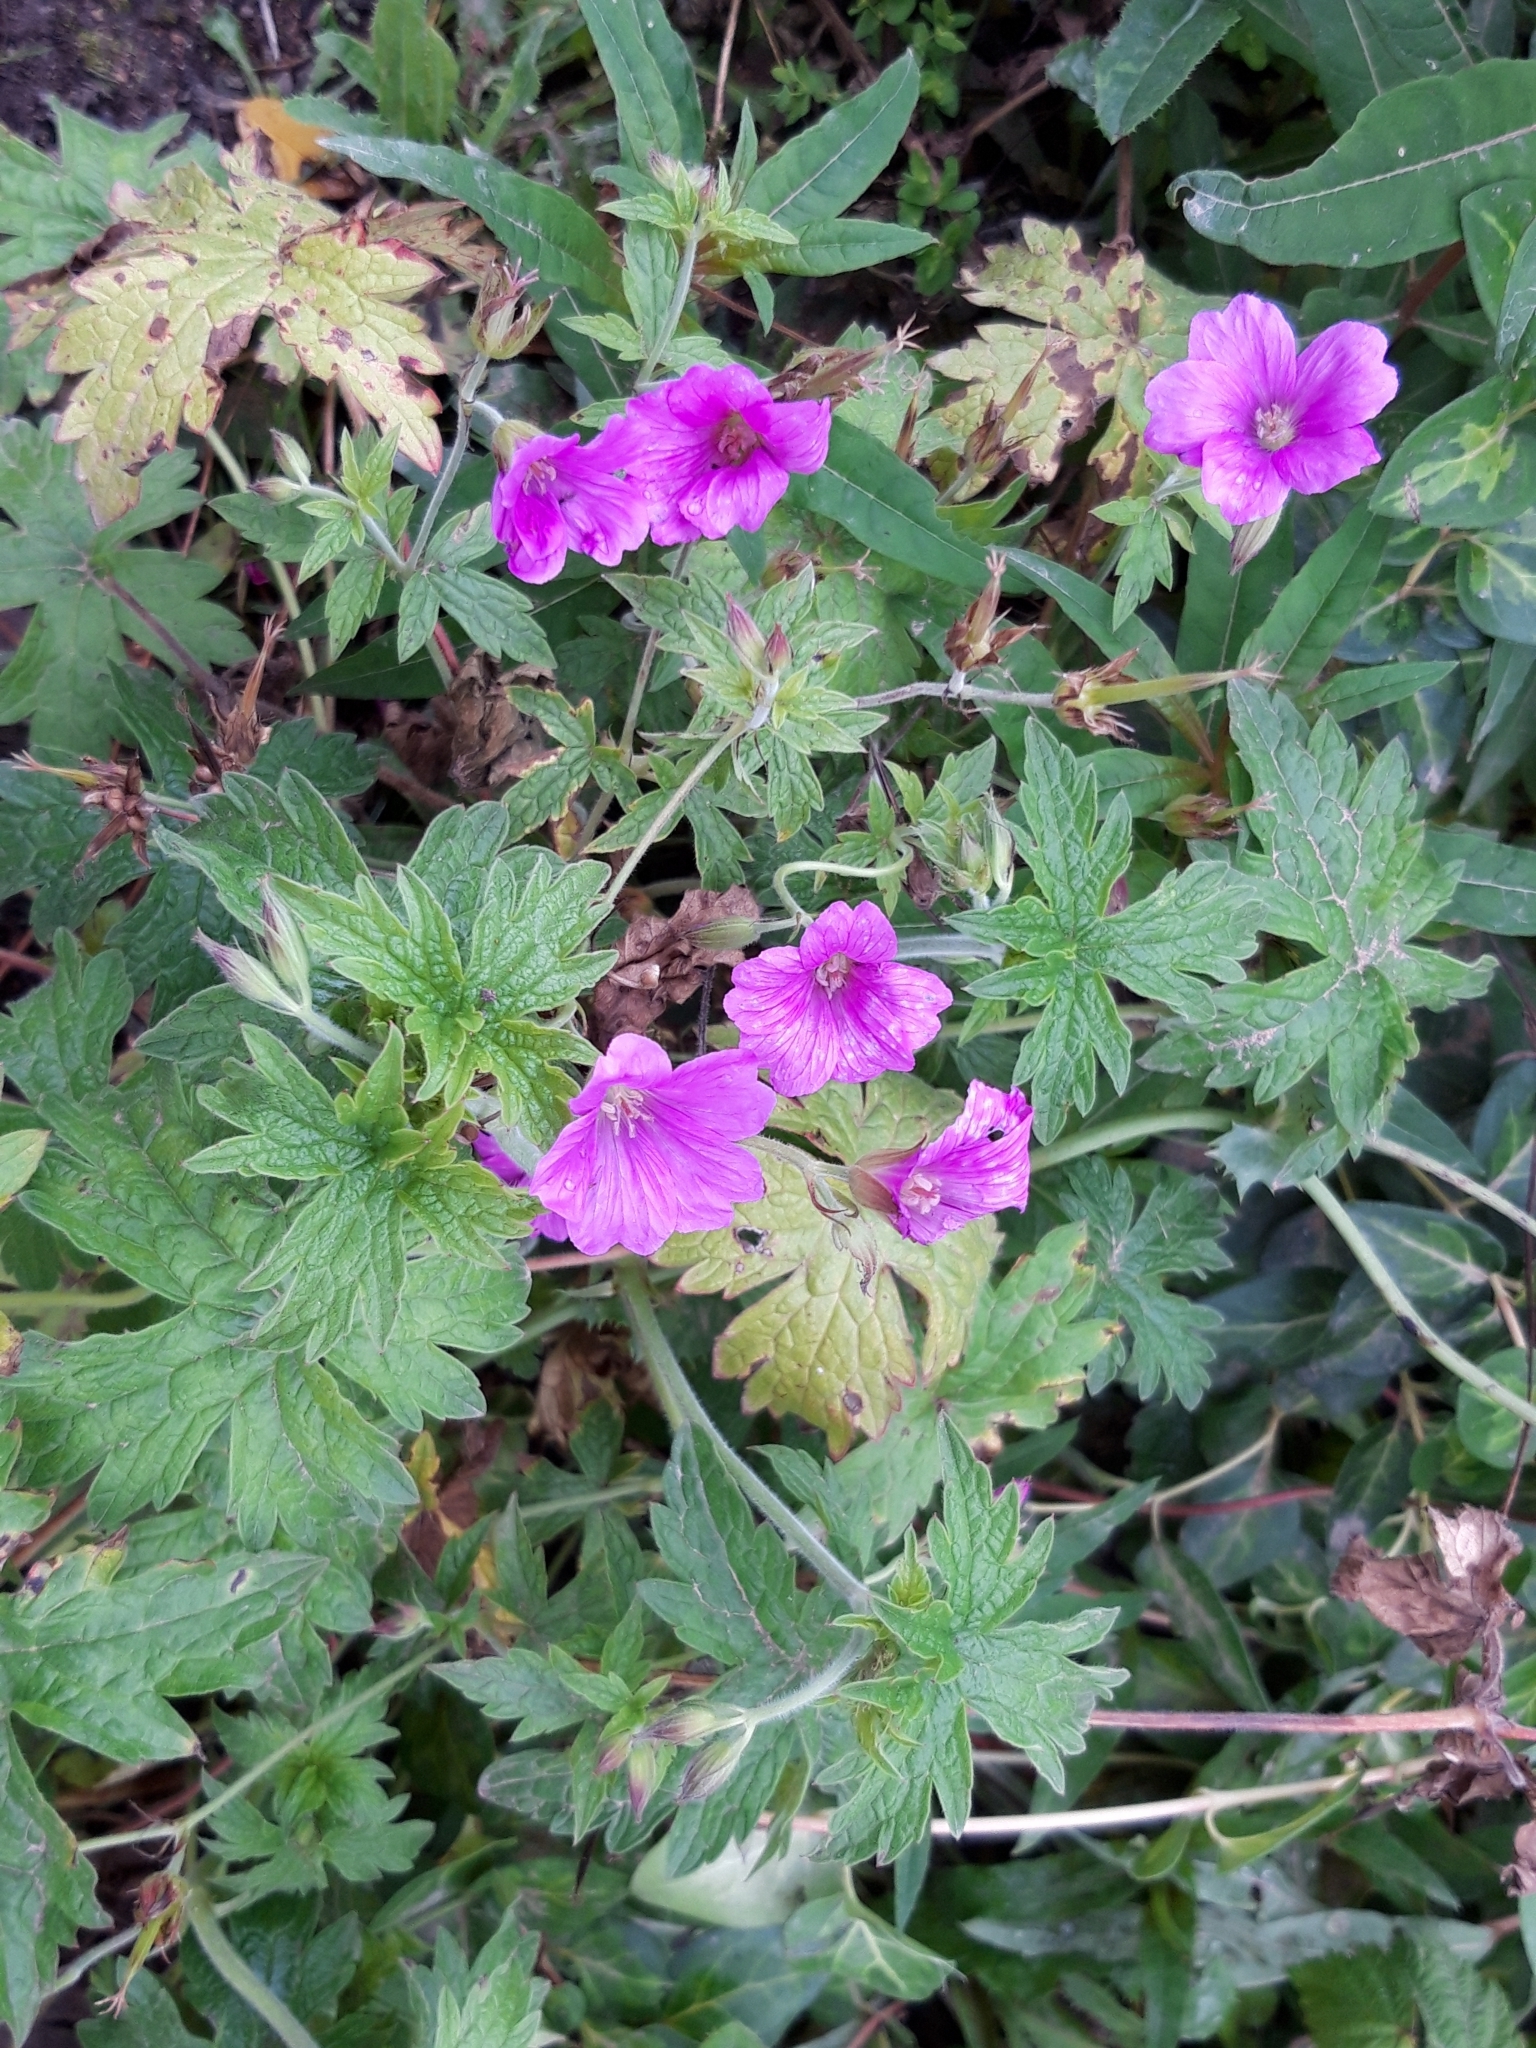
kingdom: Plantae
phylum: Tracheophyta
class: Magnoliopsida
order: Geraniales
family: Geraniaceae
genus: Geranium
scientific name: Geranium oxonianum
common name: Druce's crane's-bill
